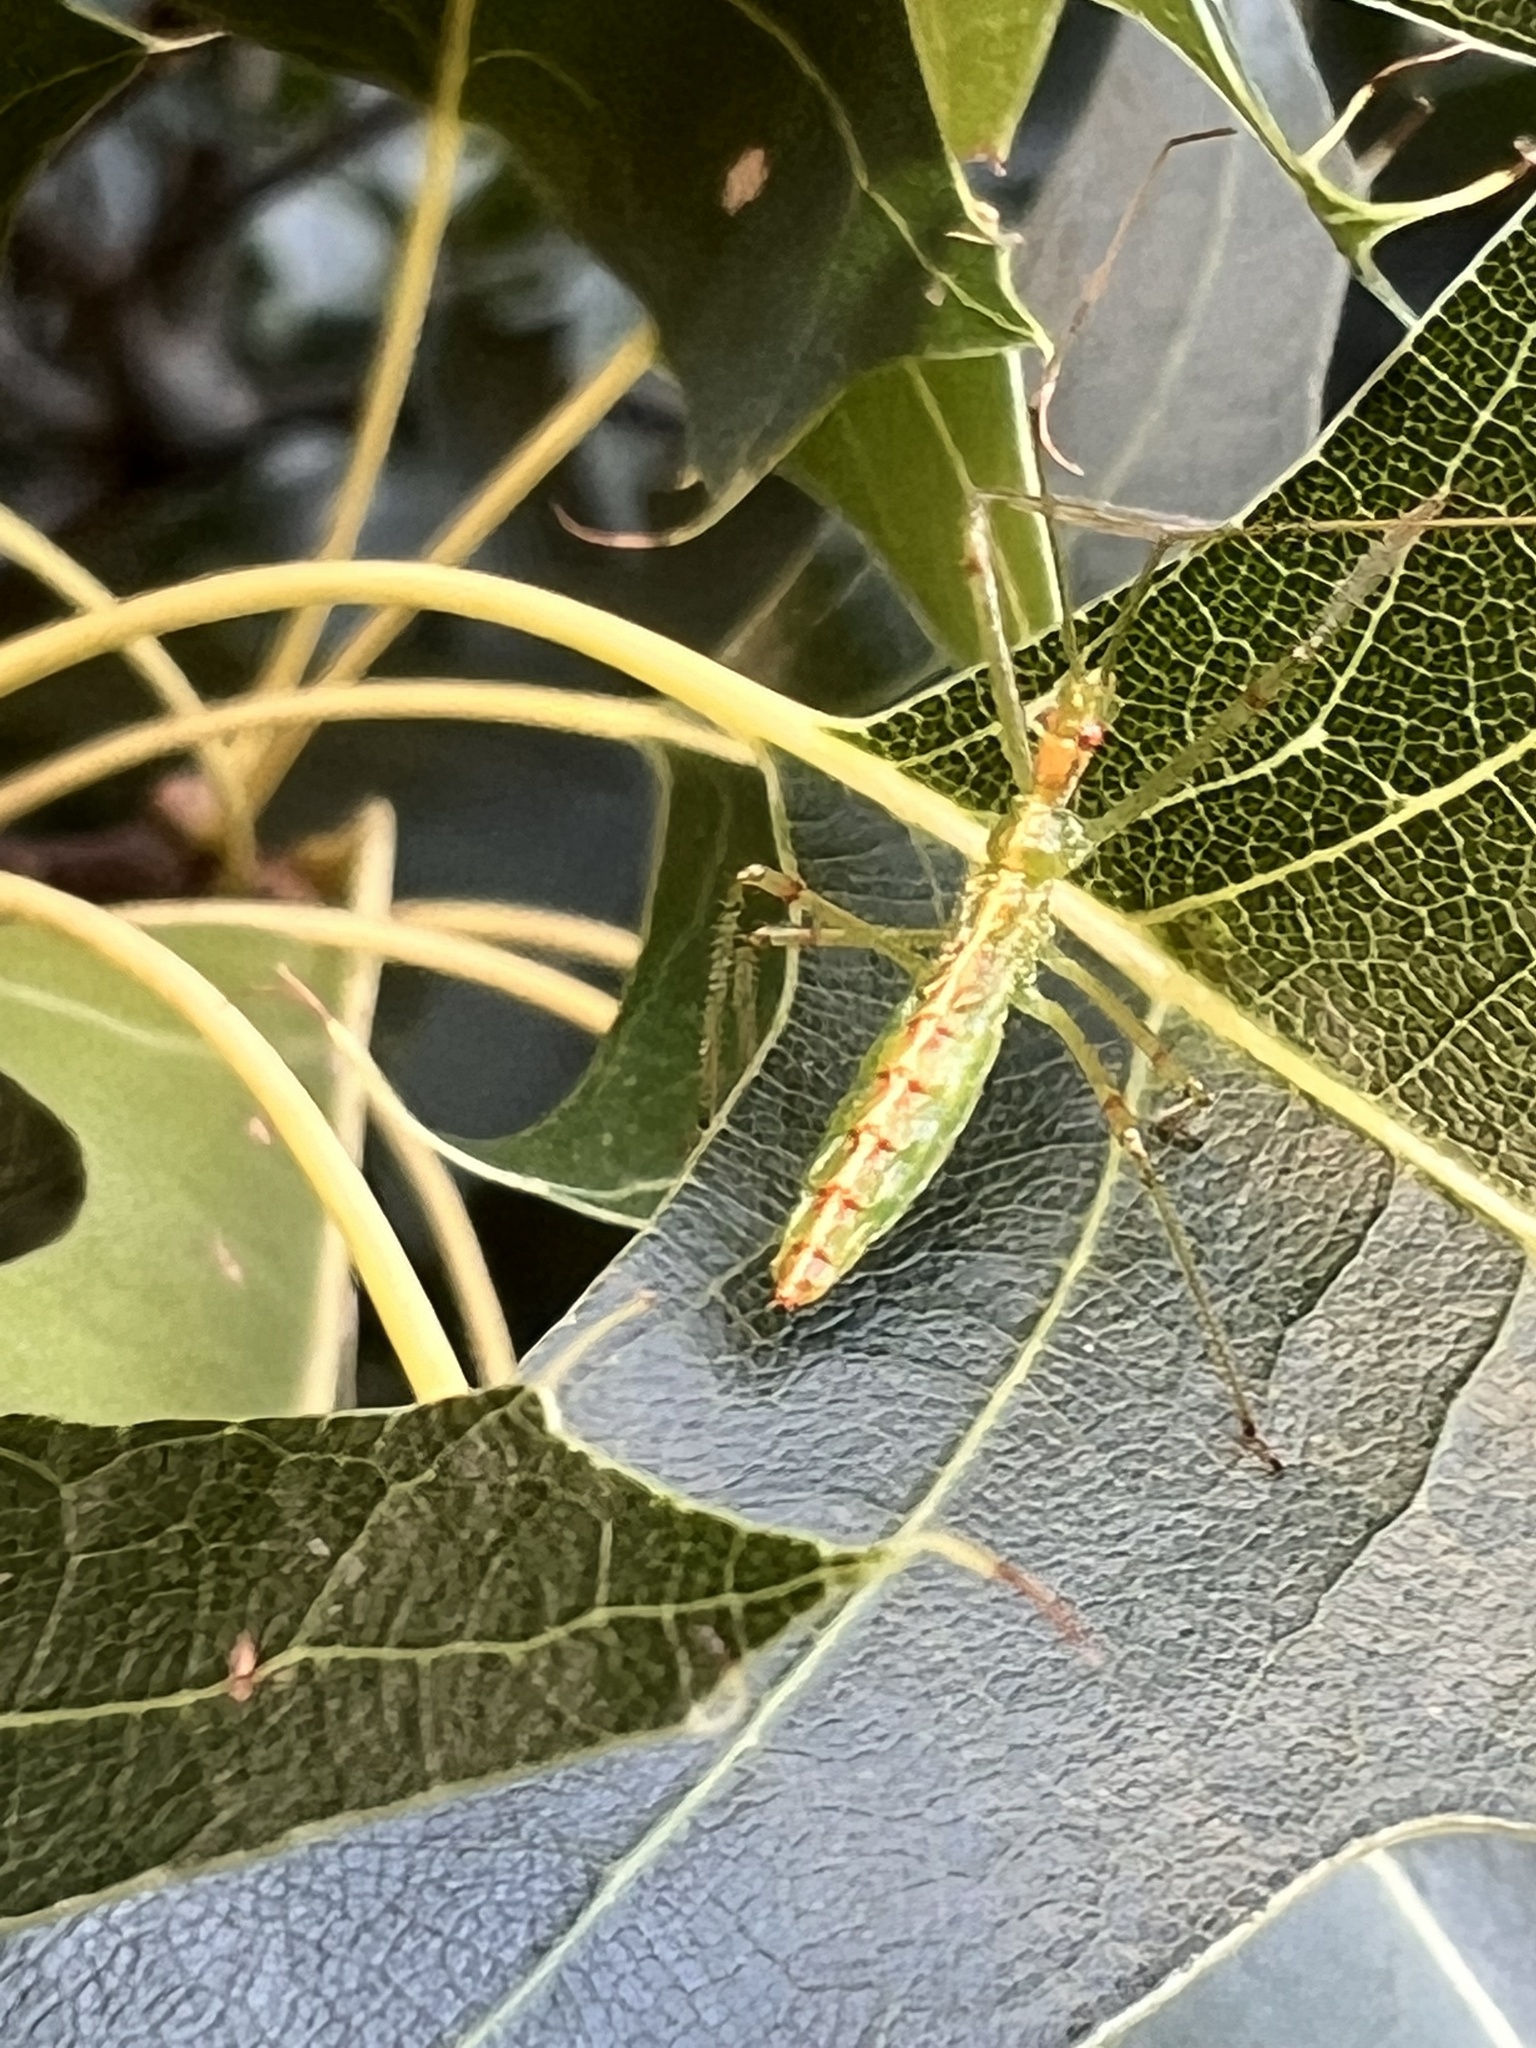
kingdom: Animalia
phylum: Arthropoda
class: Insecta
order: Hemiptera
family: Reduviidae
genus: Zelus
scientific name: Zelus luridus
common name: Pale green assassin bug
